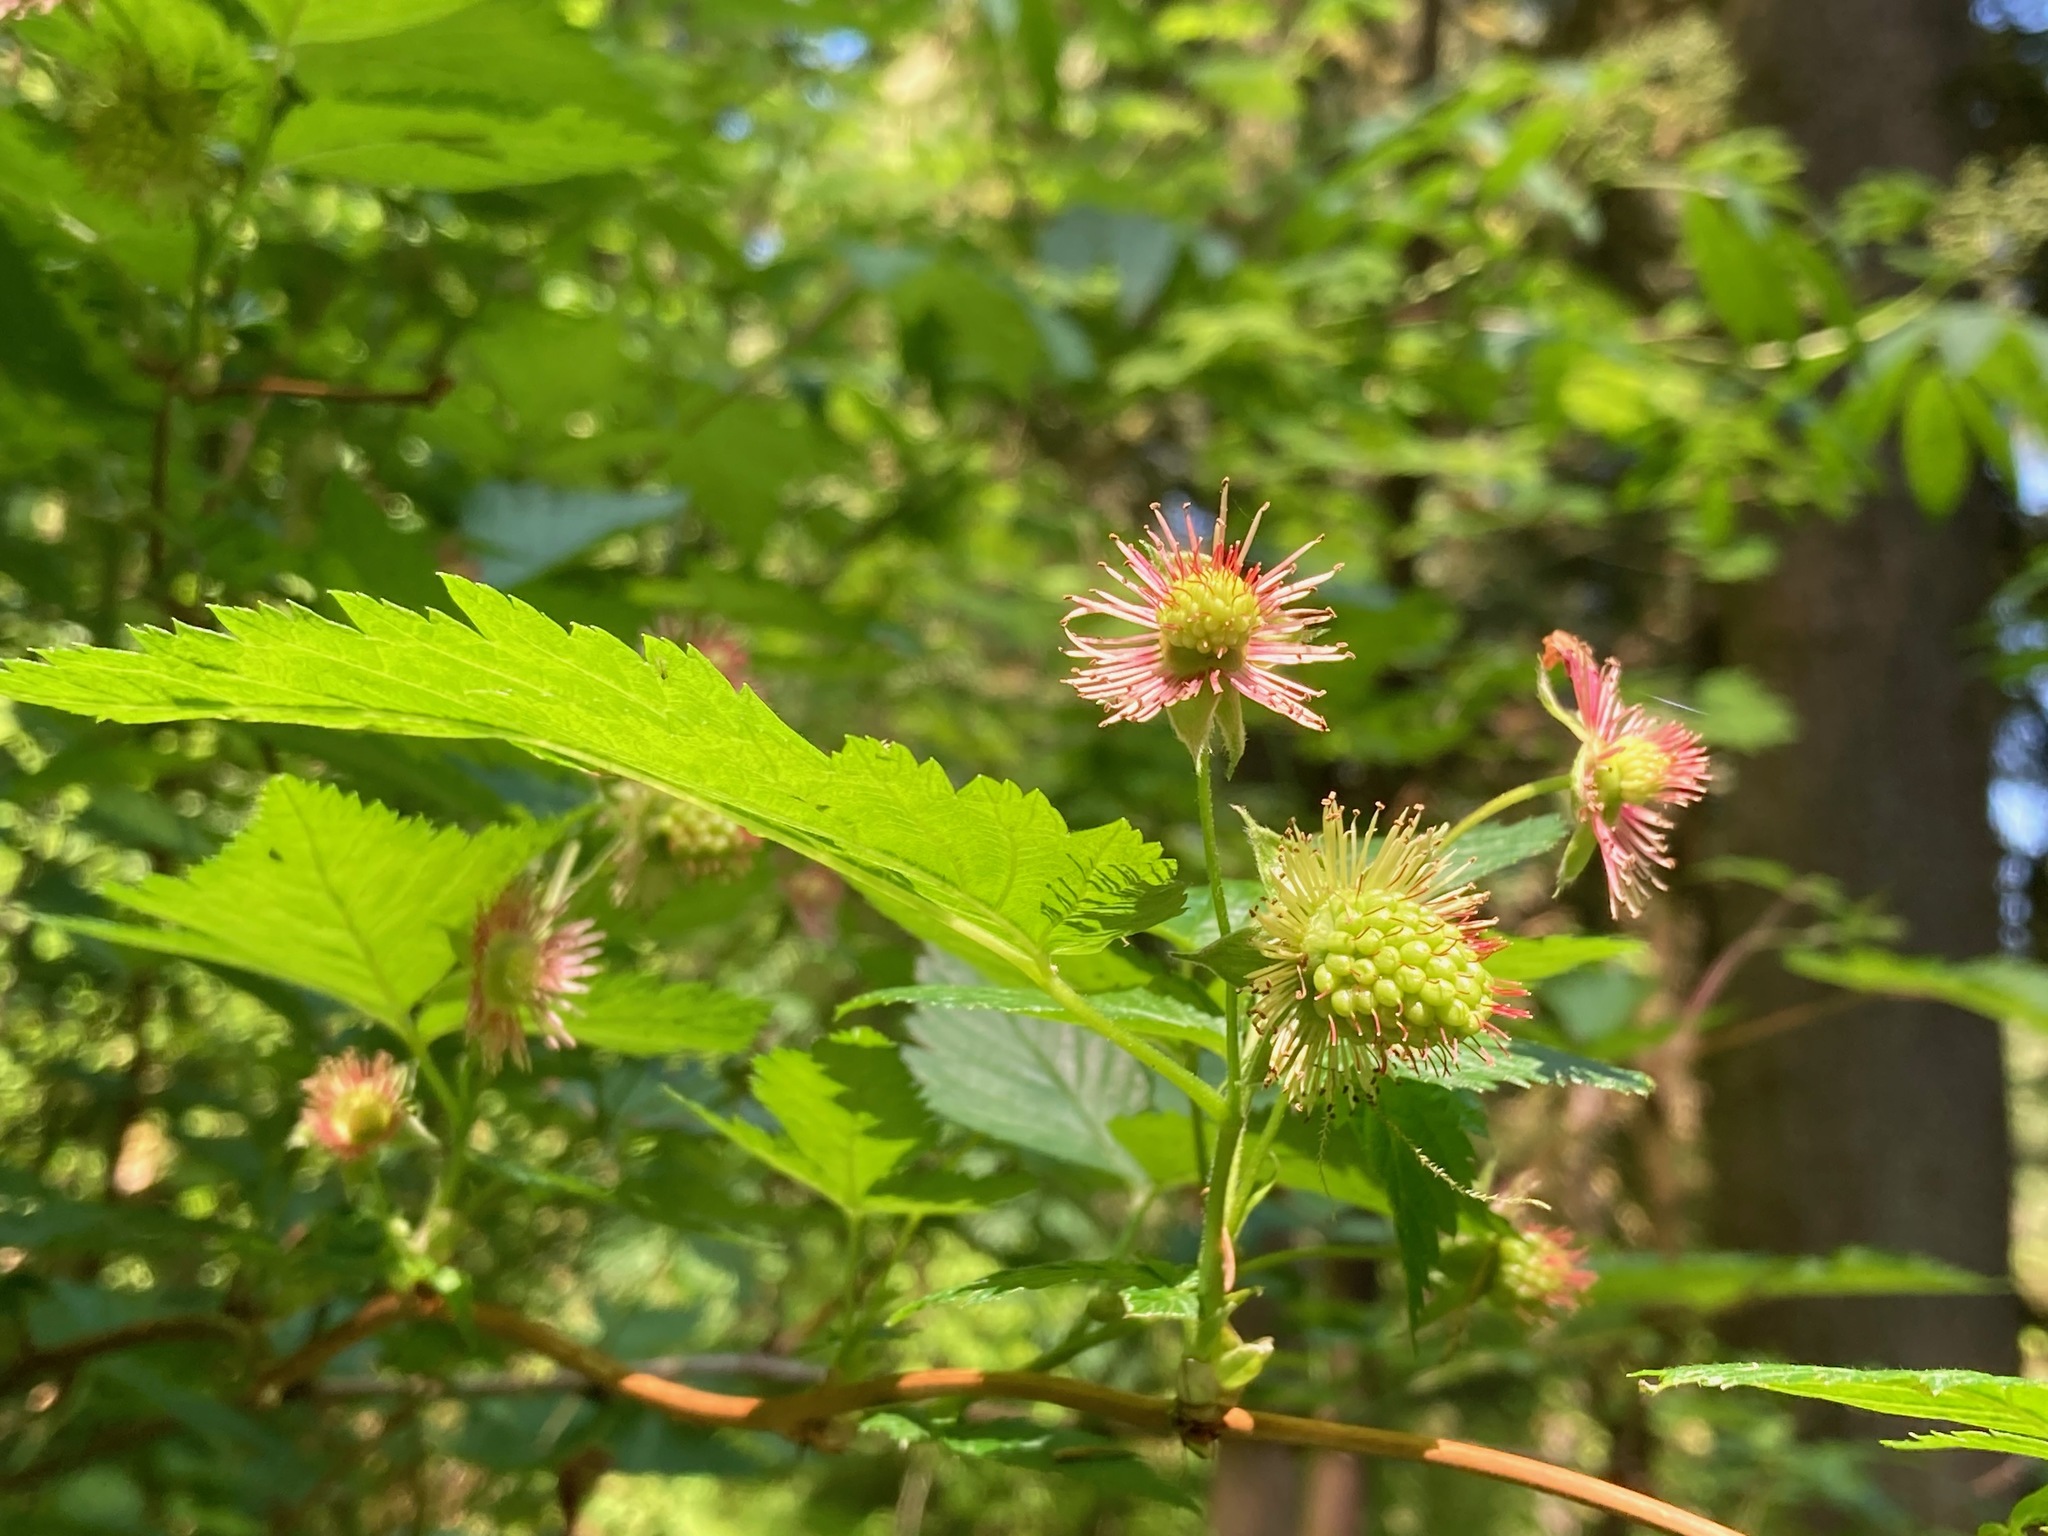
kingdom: Plantae
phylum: Tracheophyta
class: Magnoliopsida
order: Rosales
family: Rosaceae
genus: Rubus
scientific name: Rubus spectabilis
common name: Salmonberry
